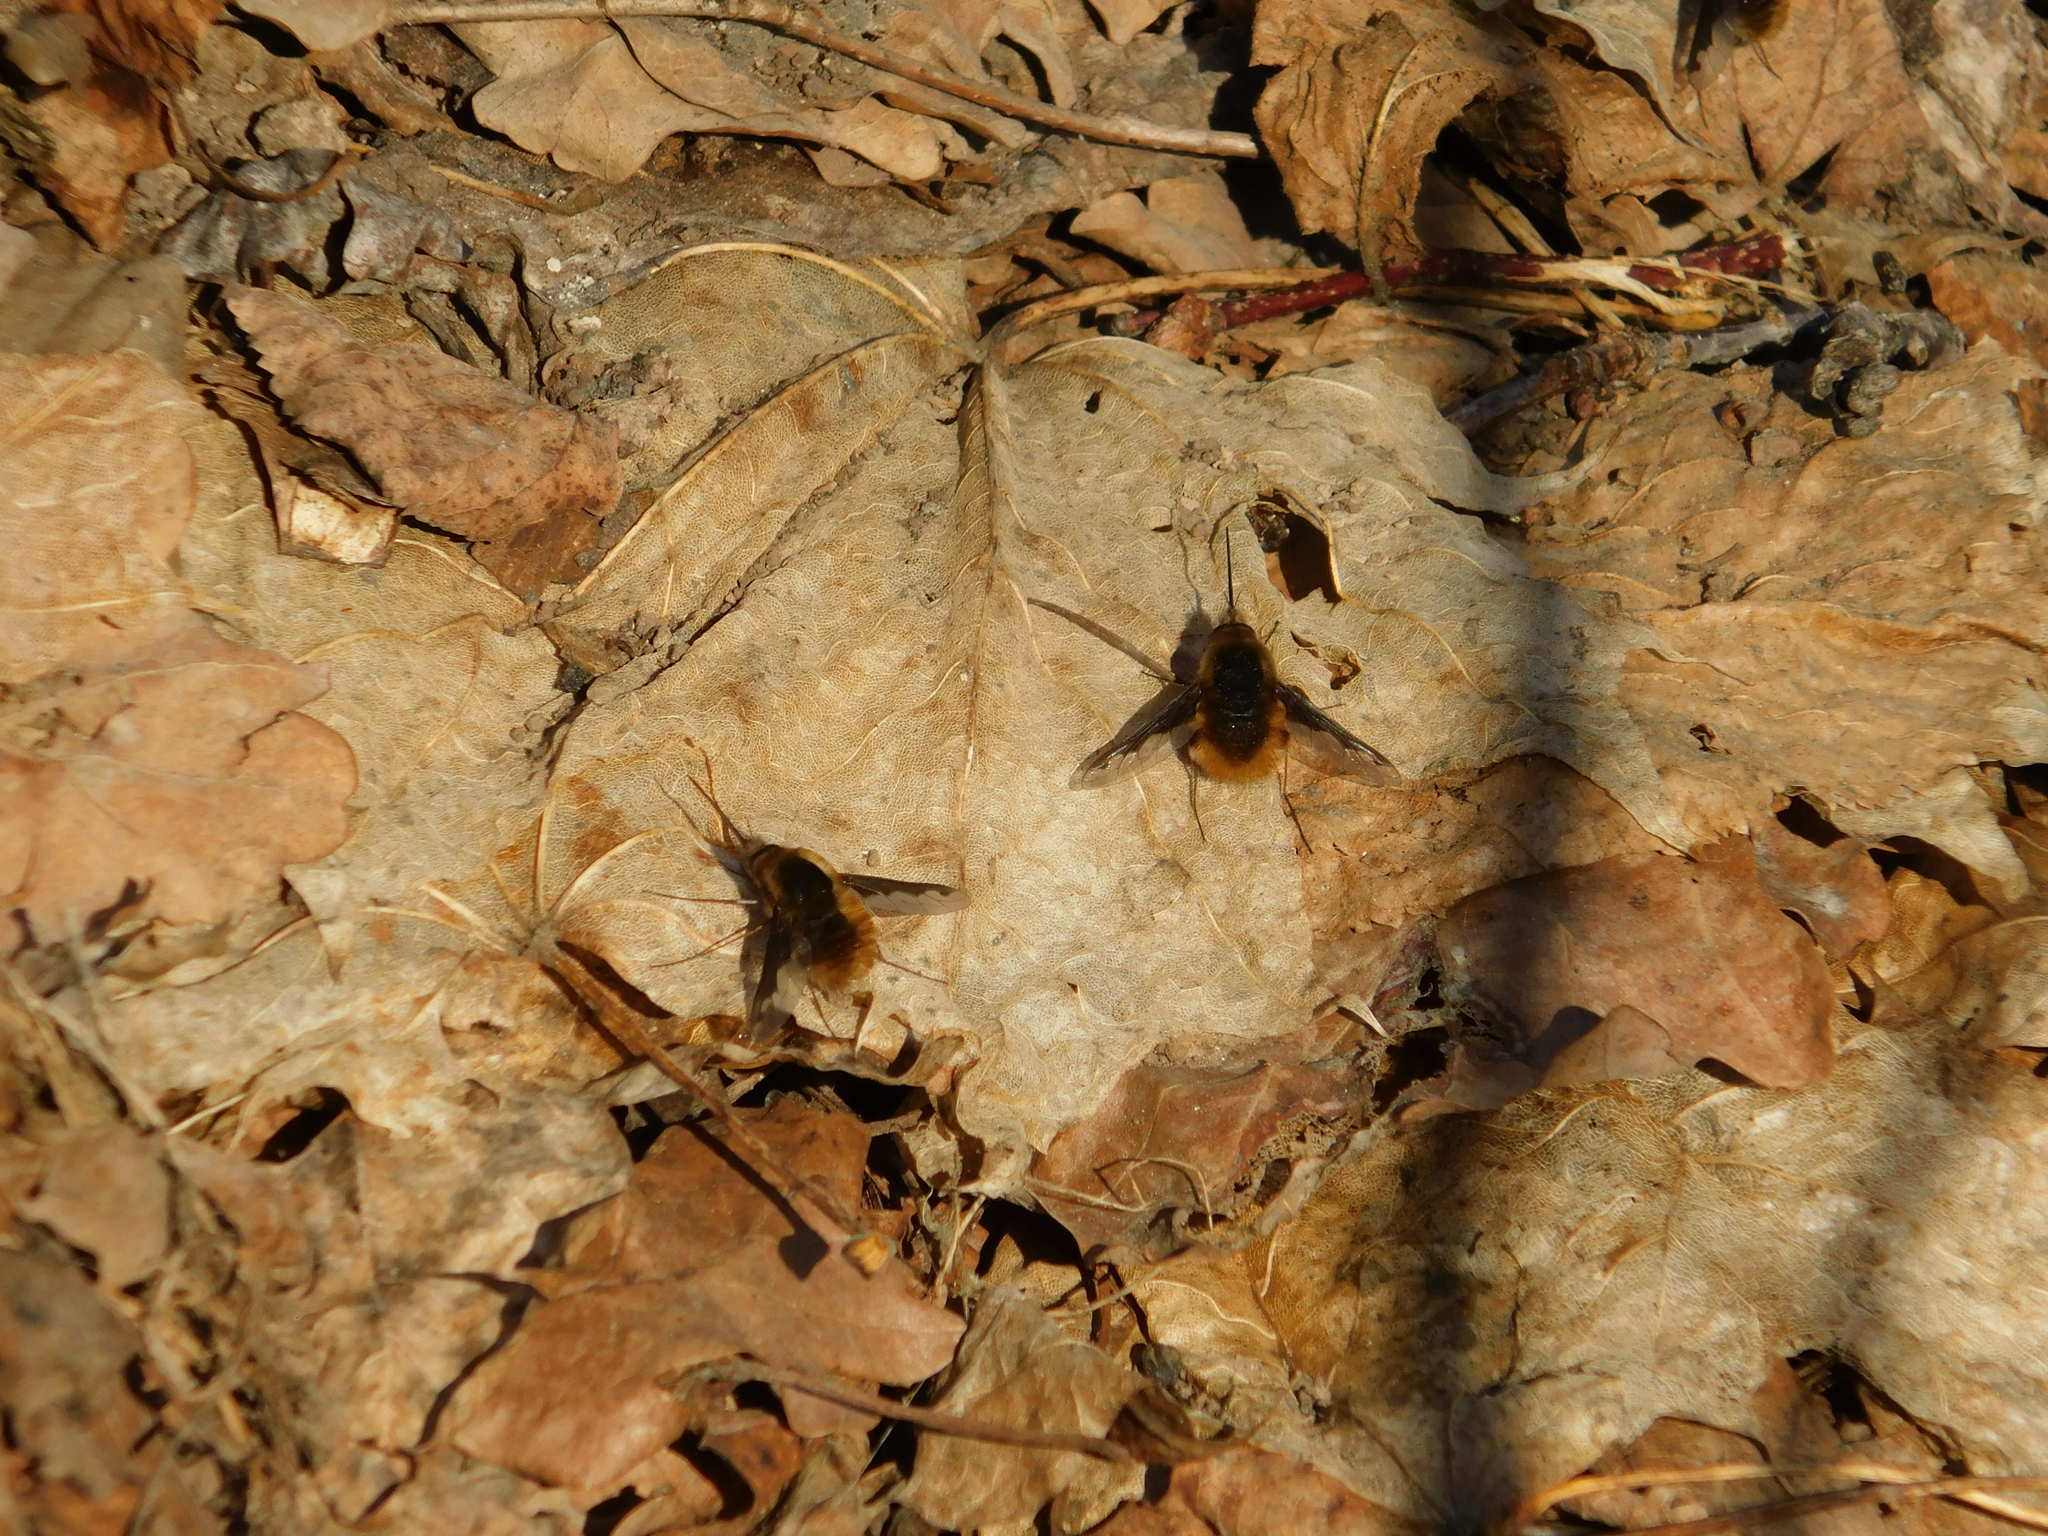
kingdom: Animalia
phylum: Arthropoda
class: Insecta
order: Diptera
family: Bombyliidae
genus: Bombylius
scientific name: Bombylius major
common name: Bee fly
